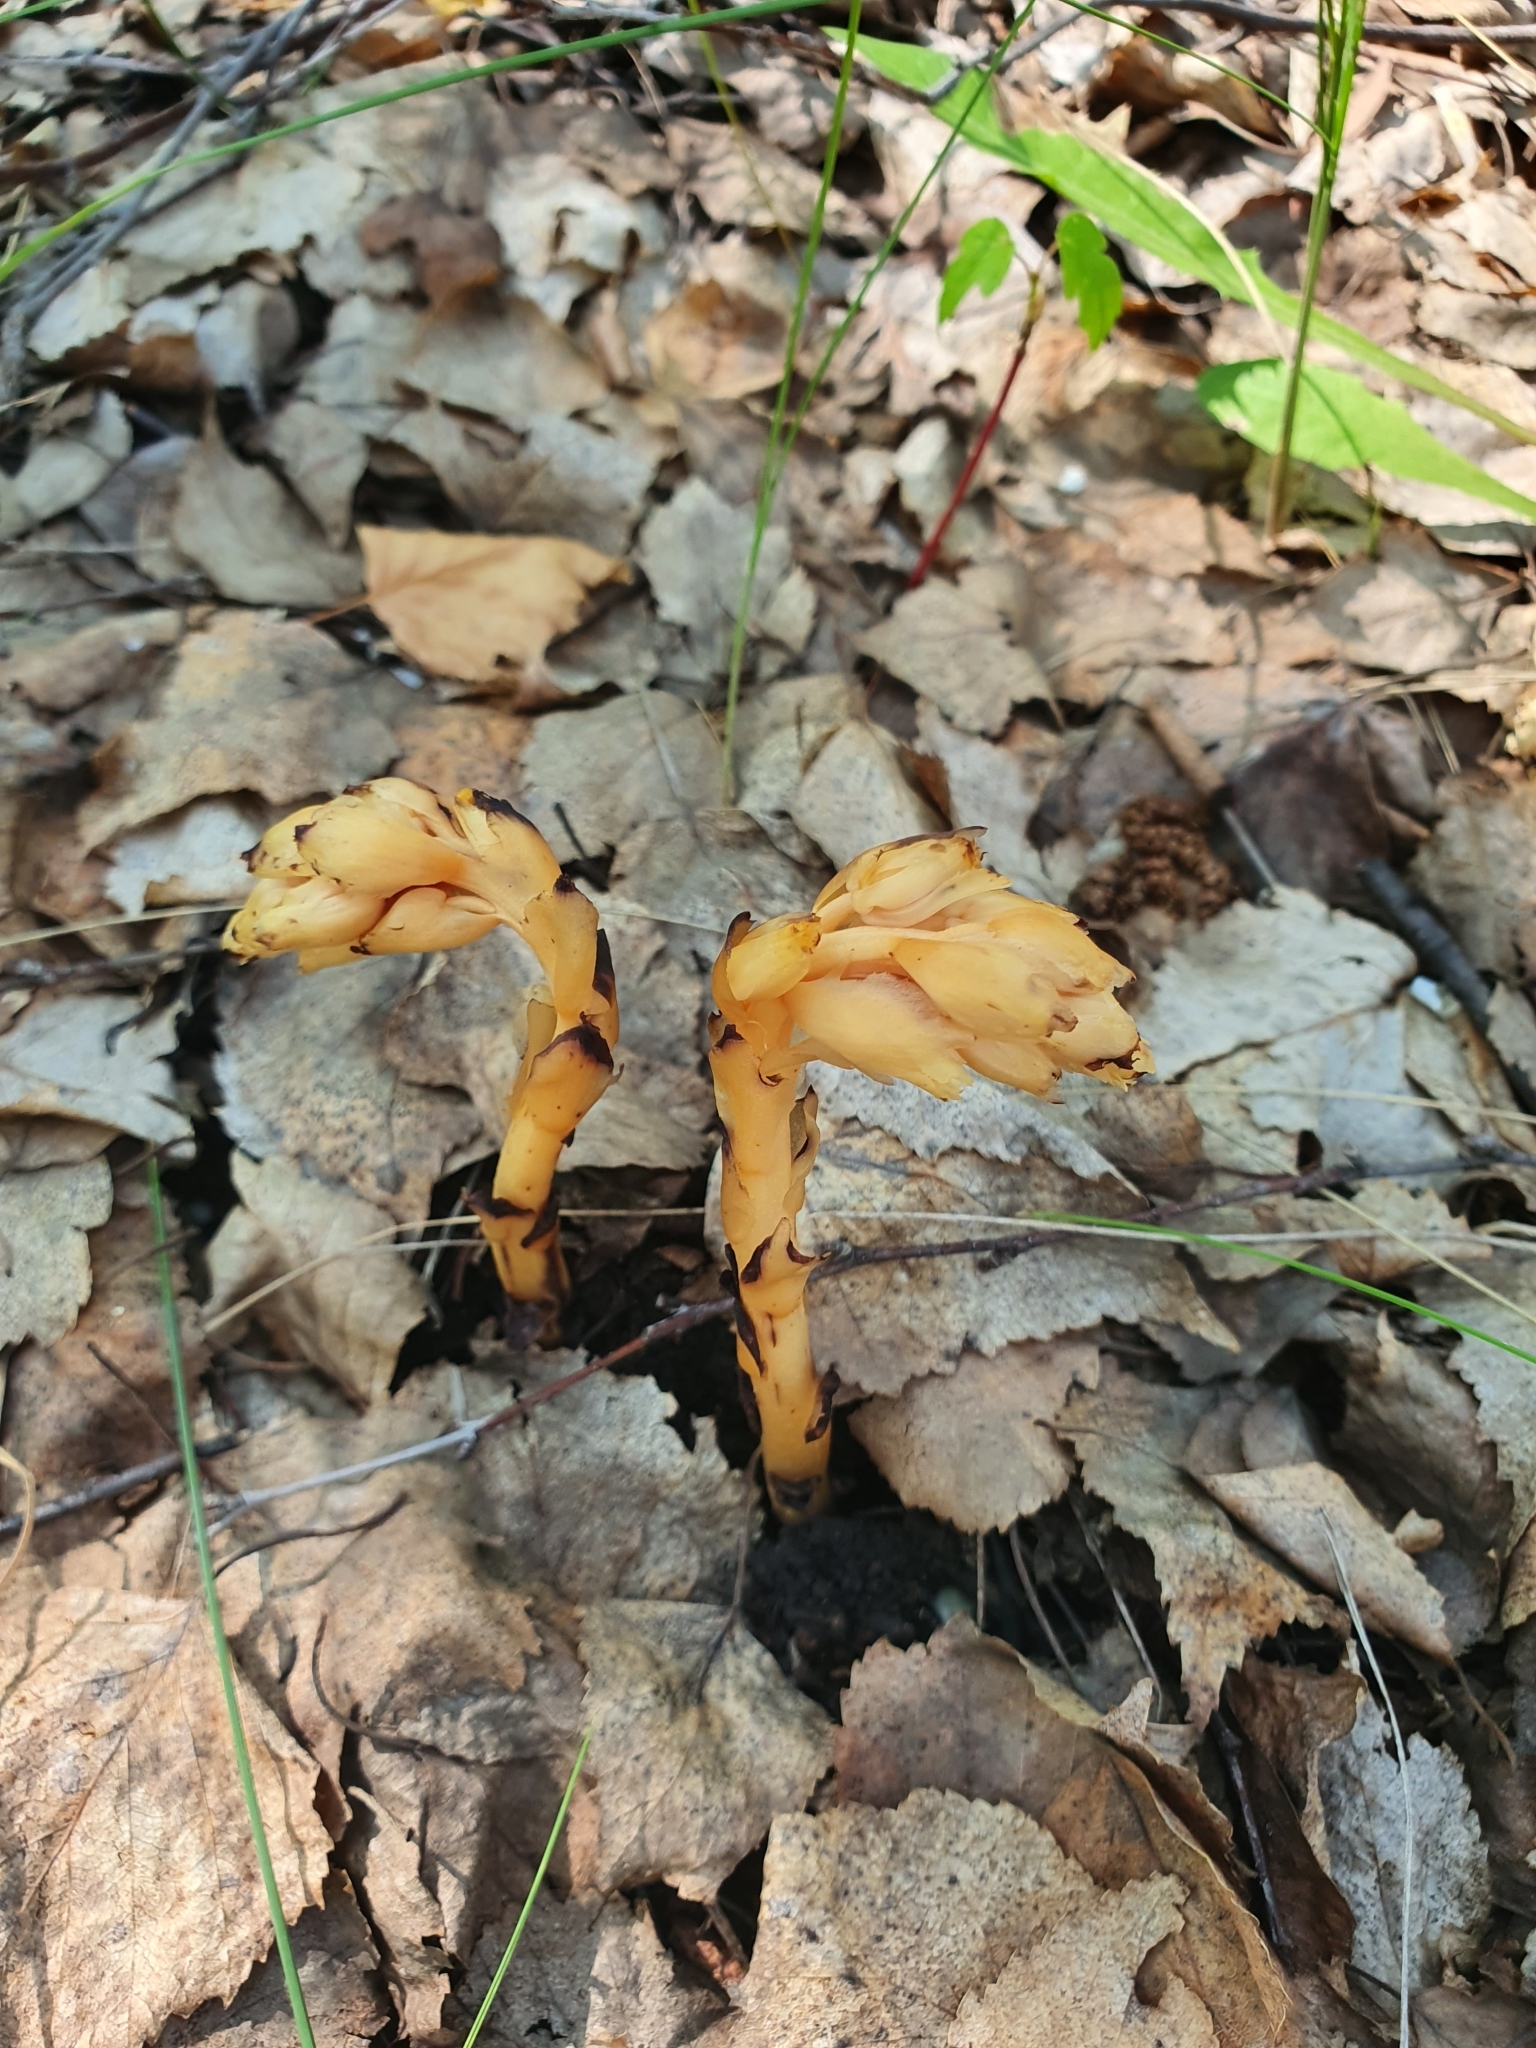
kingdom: Plantae
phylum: Tracheophyta
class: Magnoliopsida
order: Ericales
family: Ericaceae
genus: Hypopitys
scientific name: Hypopitys monotropa
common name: Yellow bird's-nest
